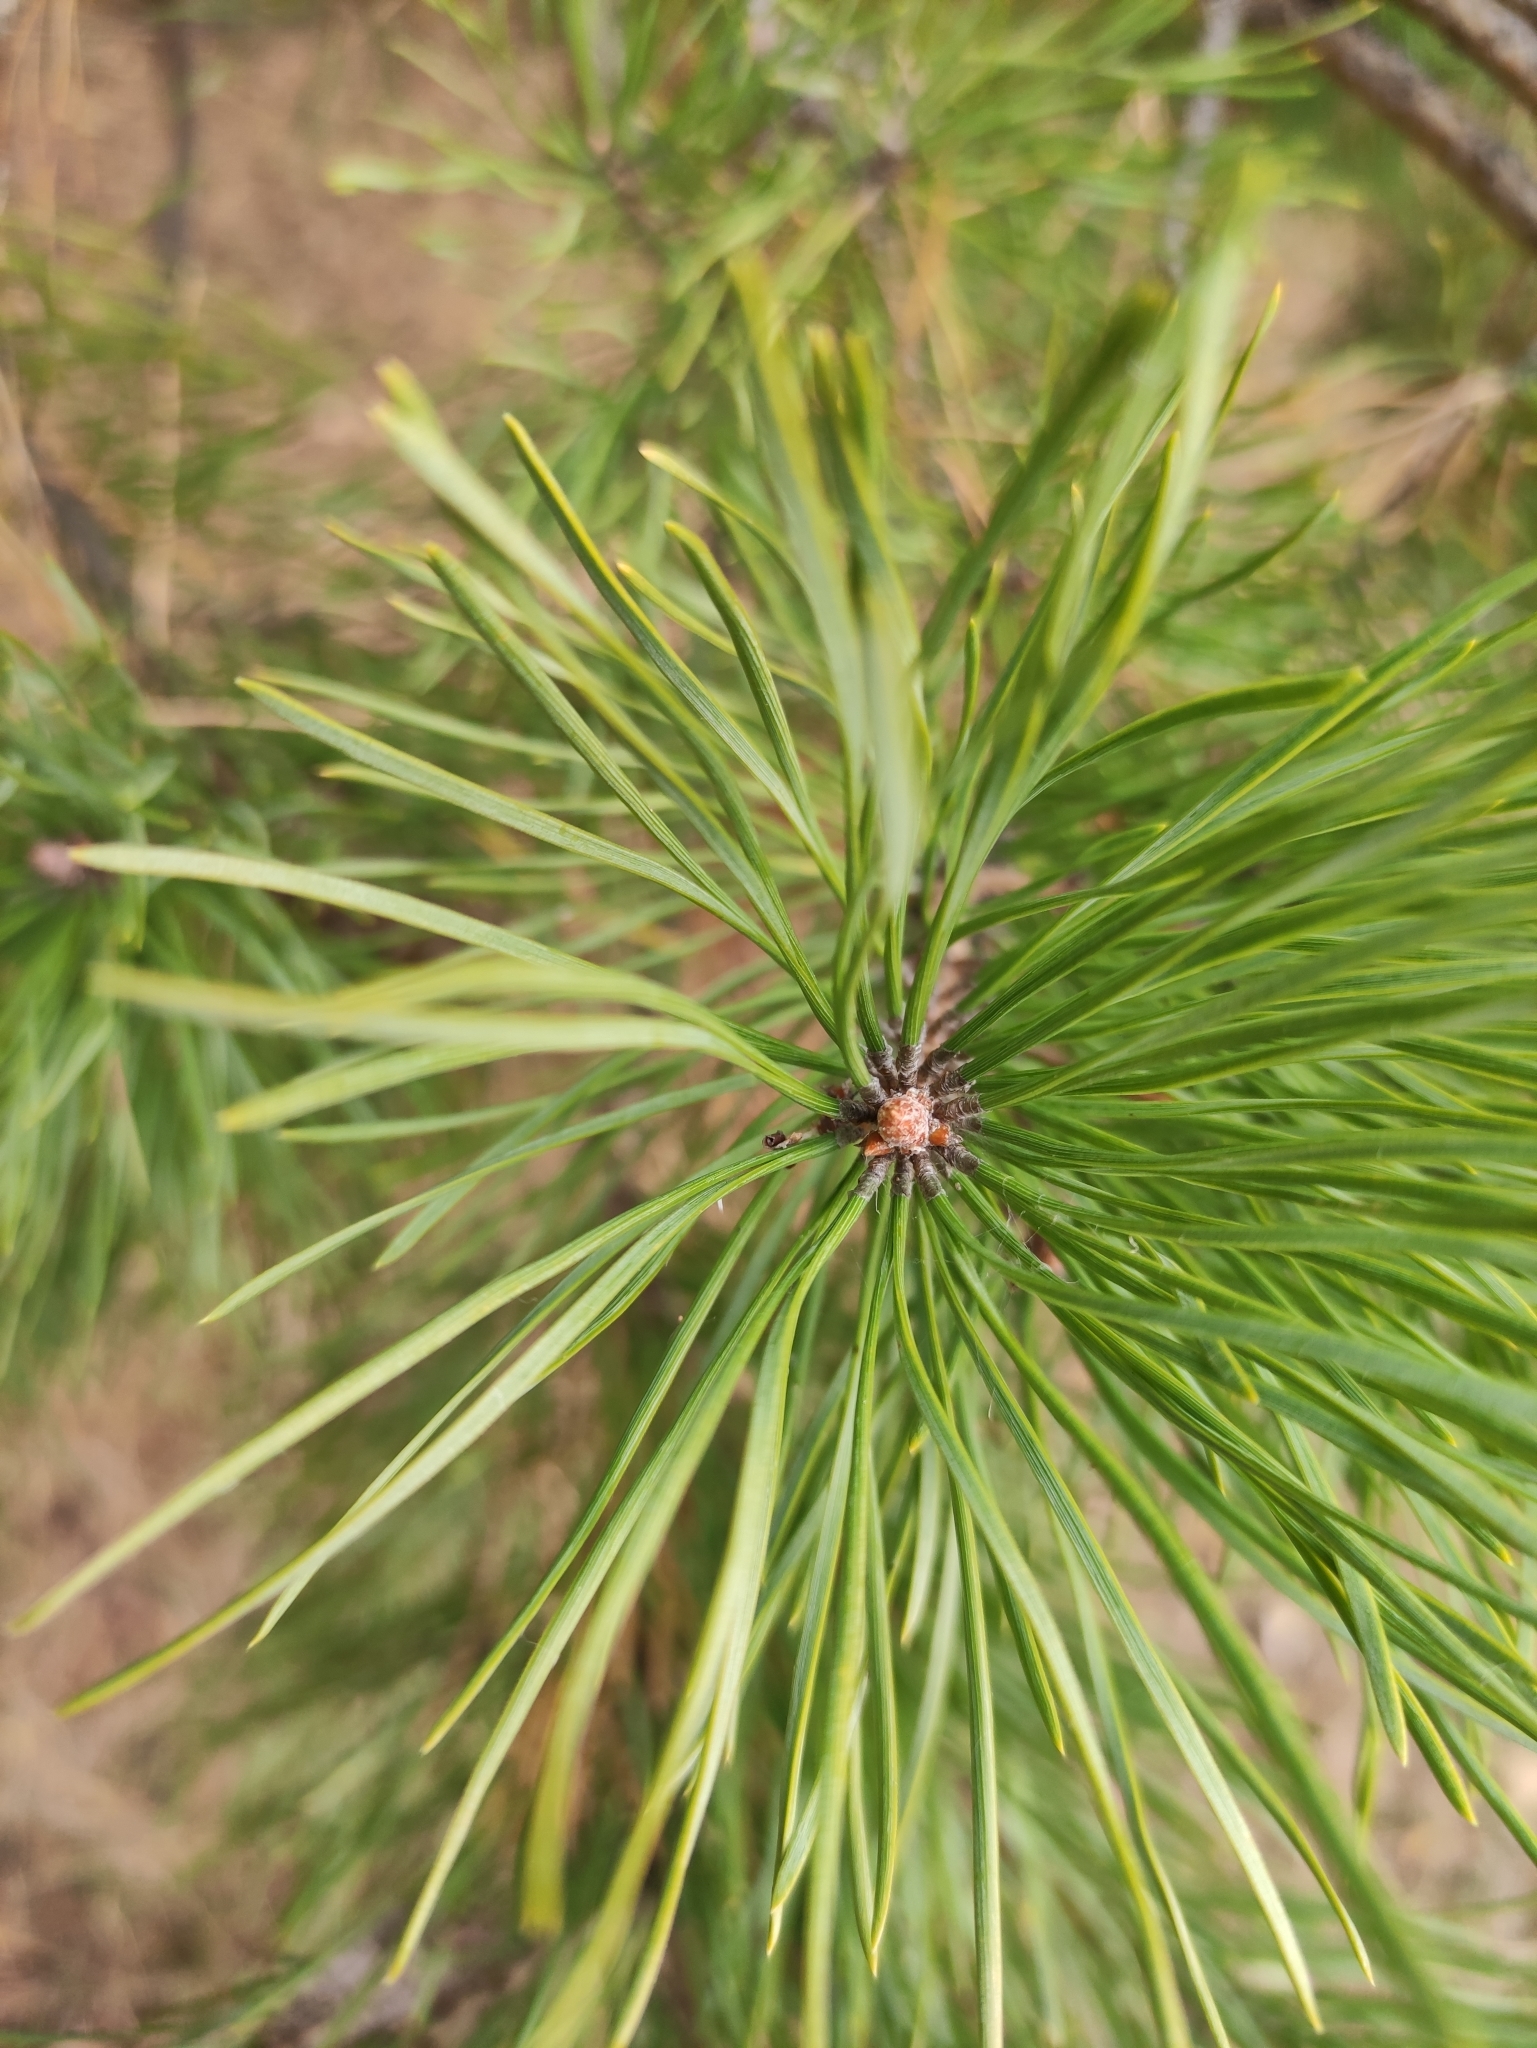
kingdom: Plantae
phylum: Tracheophyta
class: Pinopsida
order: Pinales
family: Pinaceae
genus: Pinus
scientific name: Pinus sylvestris
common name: Scots pine
